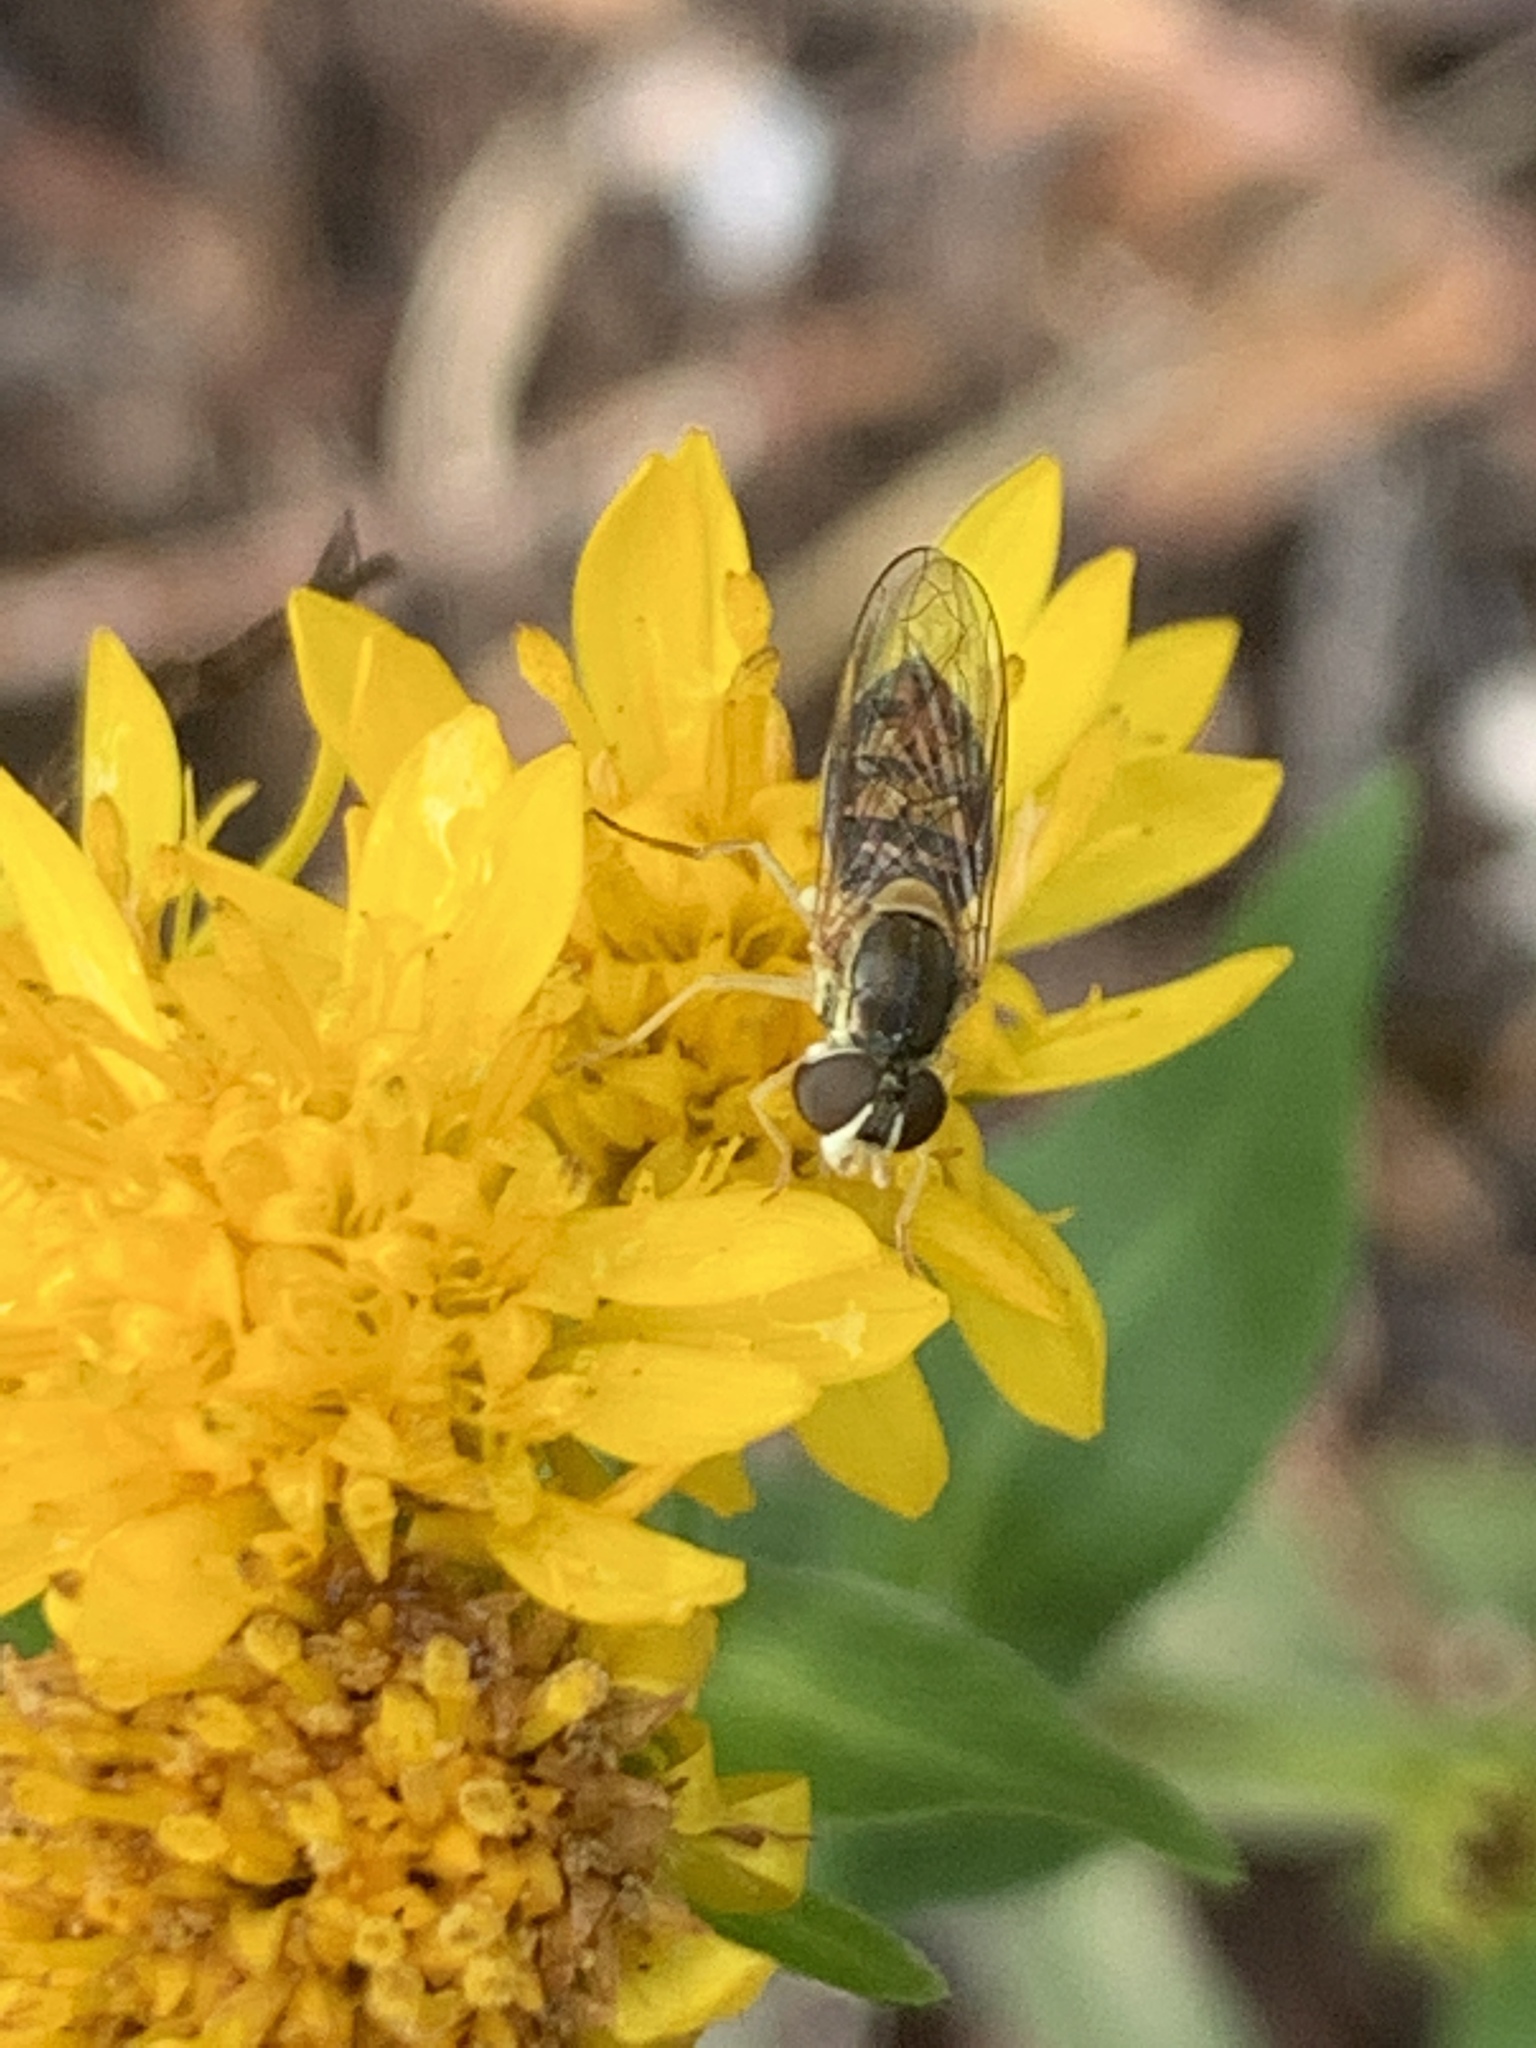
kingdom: Animalia
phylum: Arthropoda
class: Insecta
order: Diptera
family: Syrphidae
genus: Toxomerus
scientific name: Toxomerus marginatus
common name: Syrphid fly
